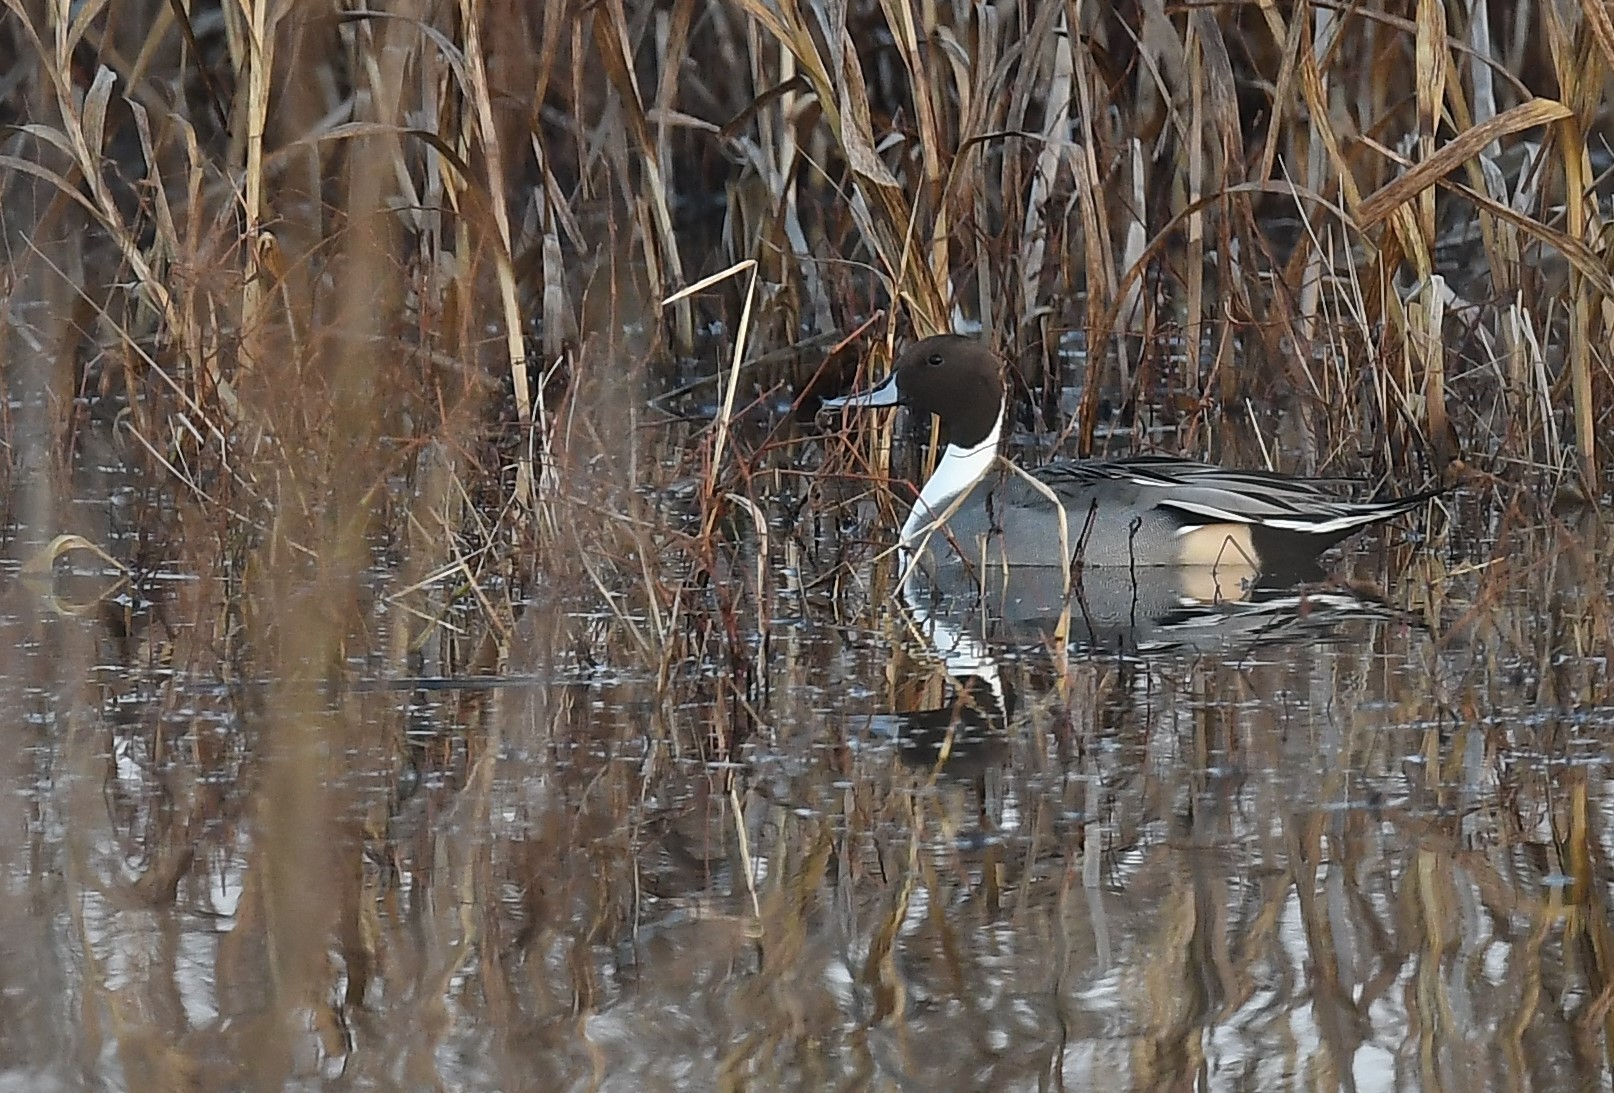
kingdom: Animalia
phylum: Chordata
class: Aves
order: Anseriformes
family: Anatidae
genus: Anas
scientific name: Anas acuta
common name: Northern pintail
